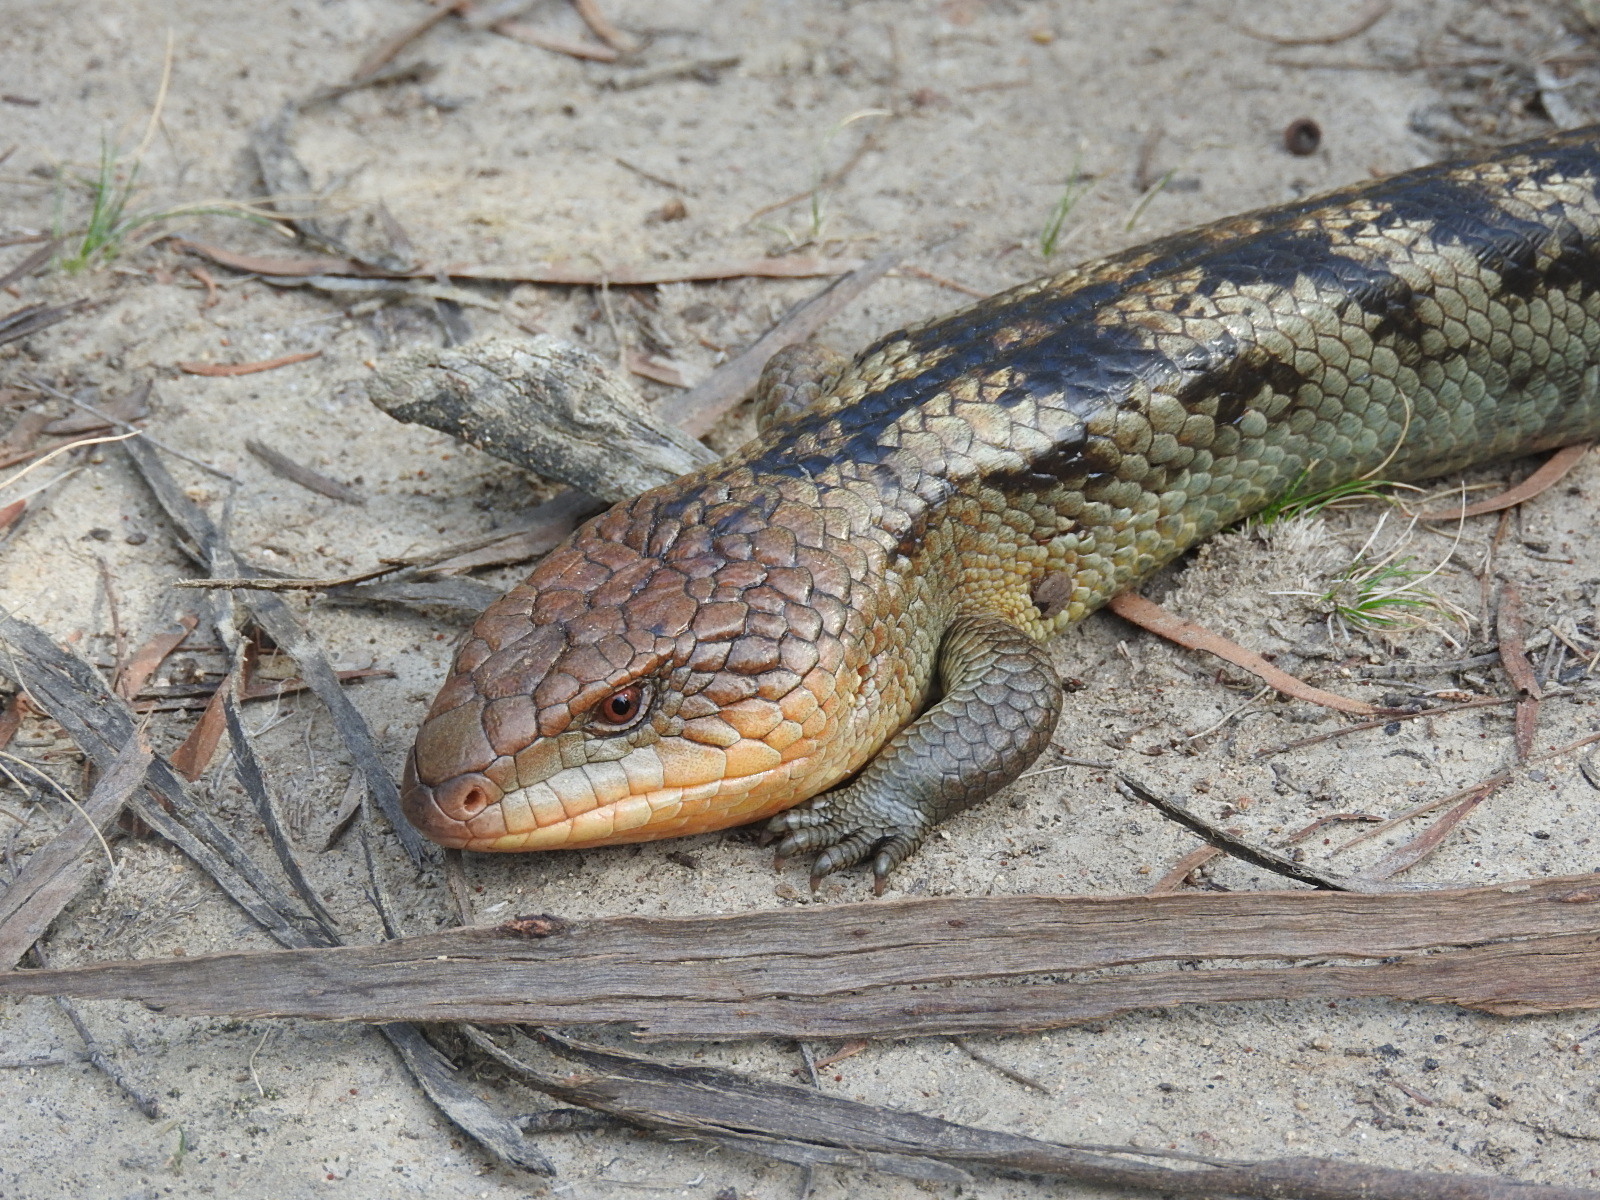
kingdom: Animalia
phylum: Chordata
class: Squamata
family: Scincidae
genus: Tiliqua
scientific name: Tiliqua nigrolutea
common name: Blotched blue-tongued lizard
